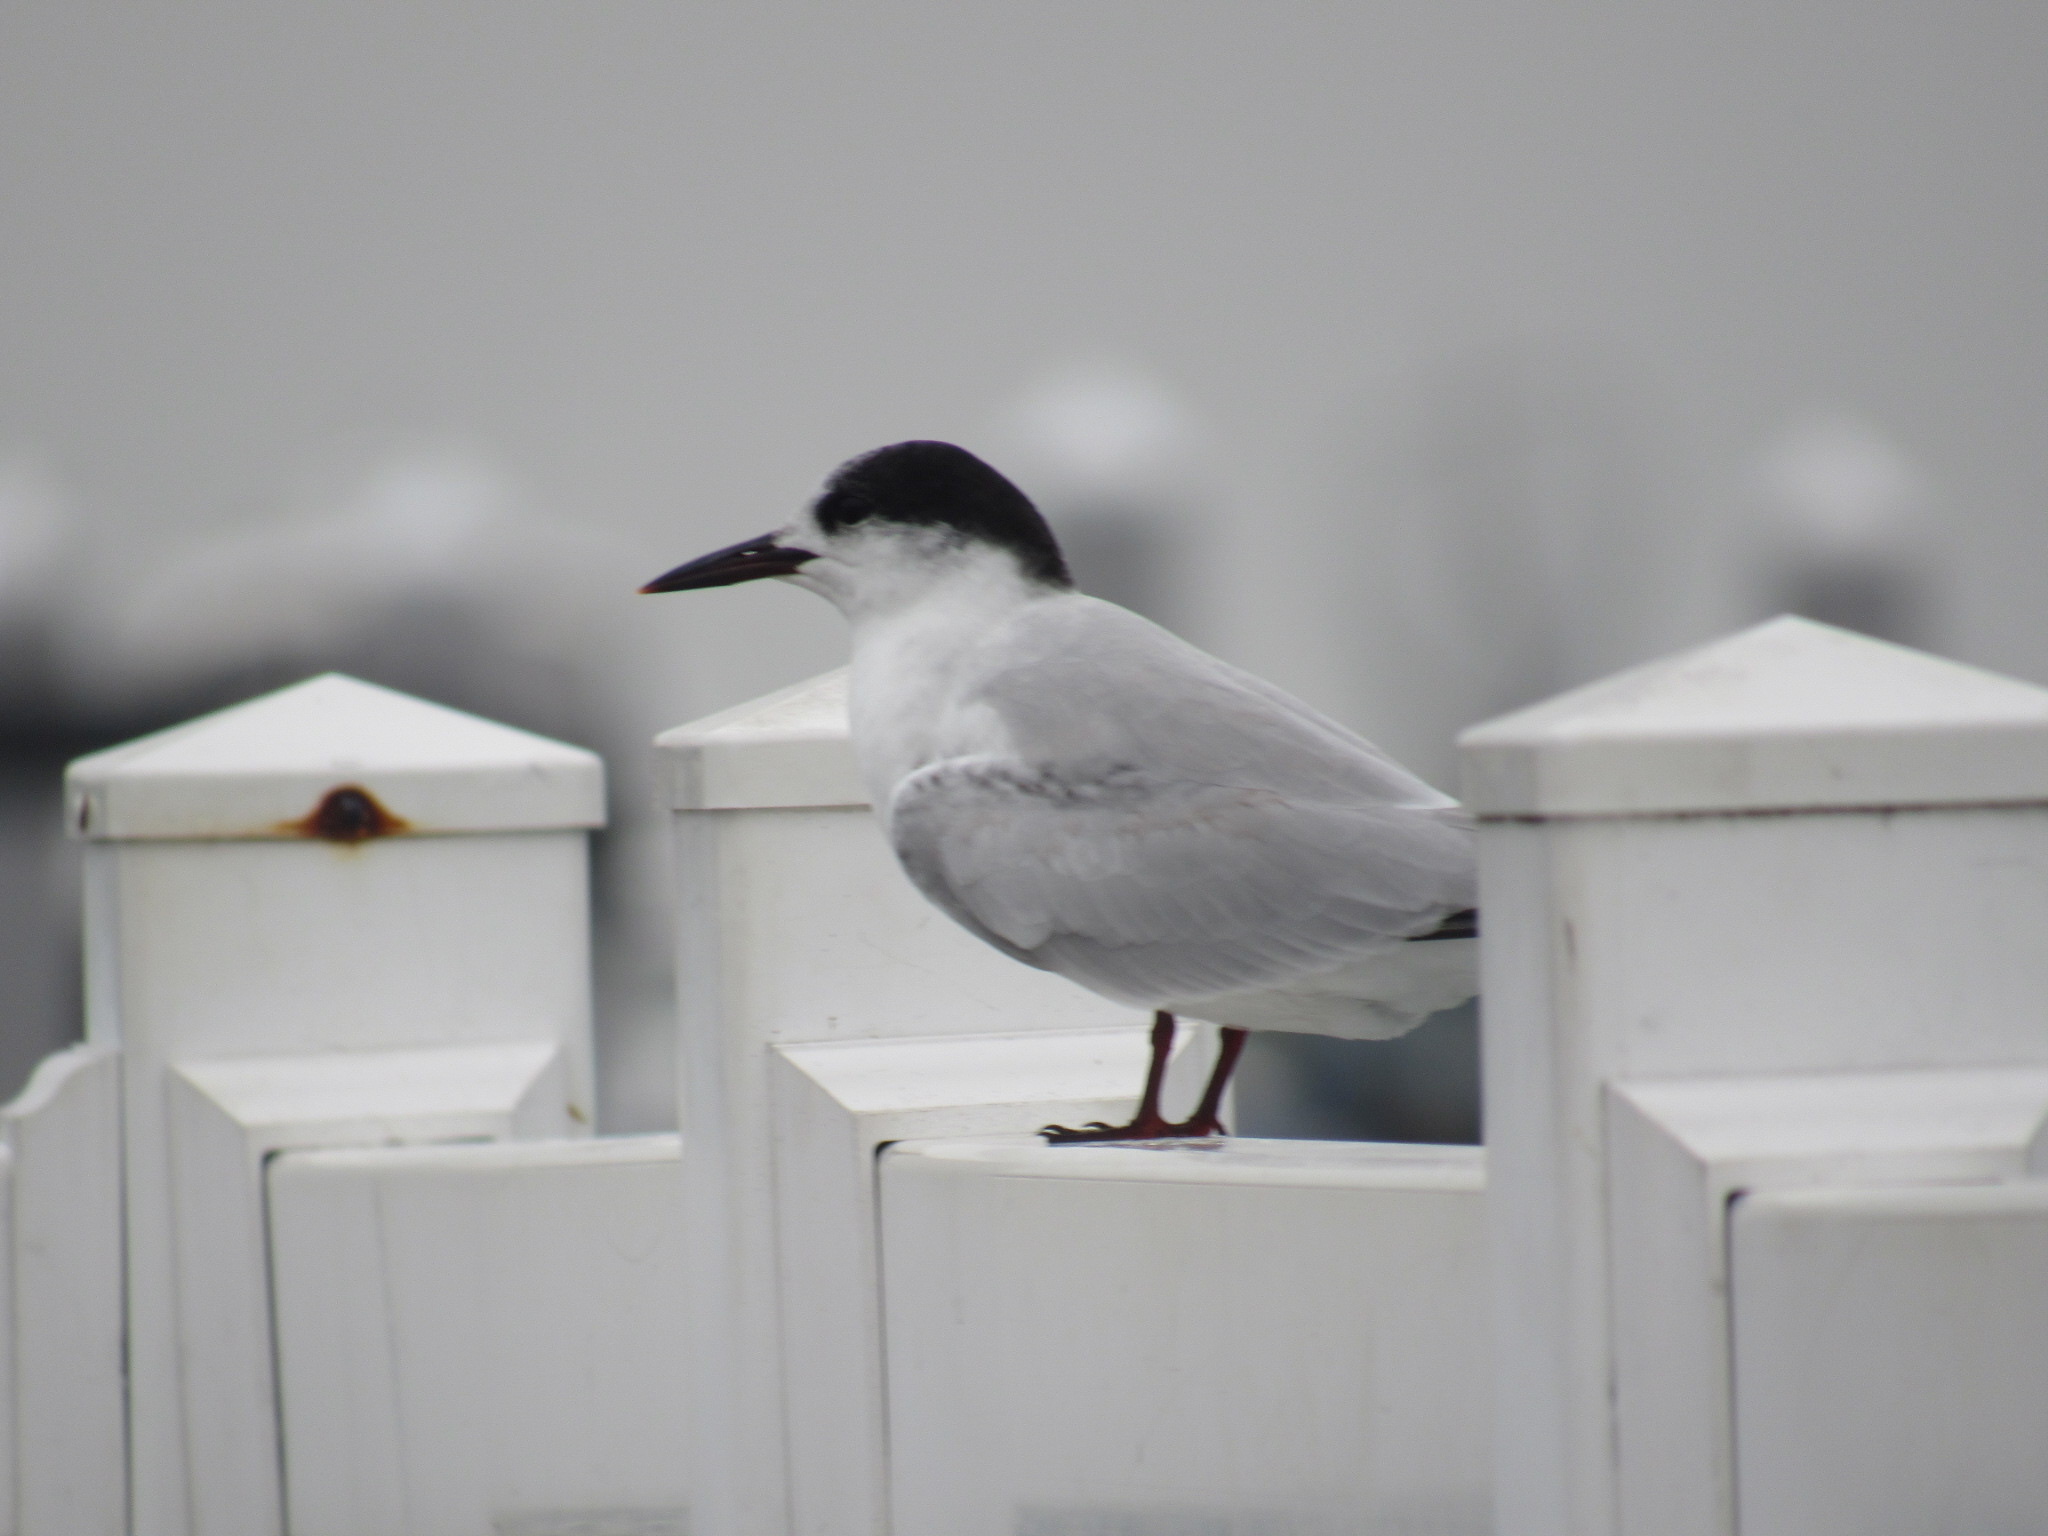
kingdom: Animalia
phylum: Chordata
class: Aves
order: Charadriiformes
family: Laridae
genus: Sterna
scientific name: Sterna hirundo
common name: Common tern
